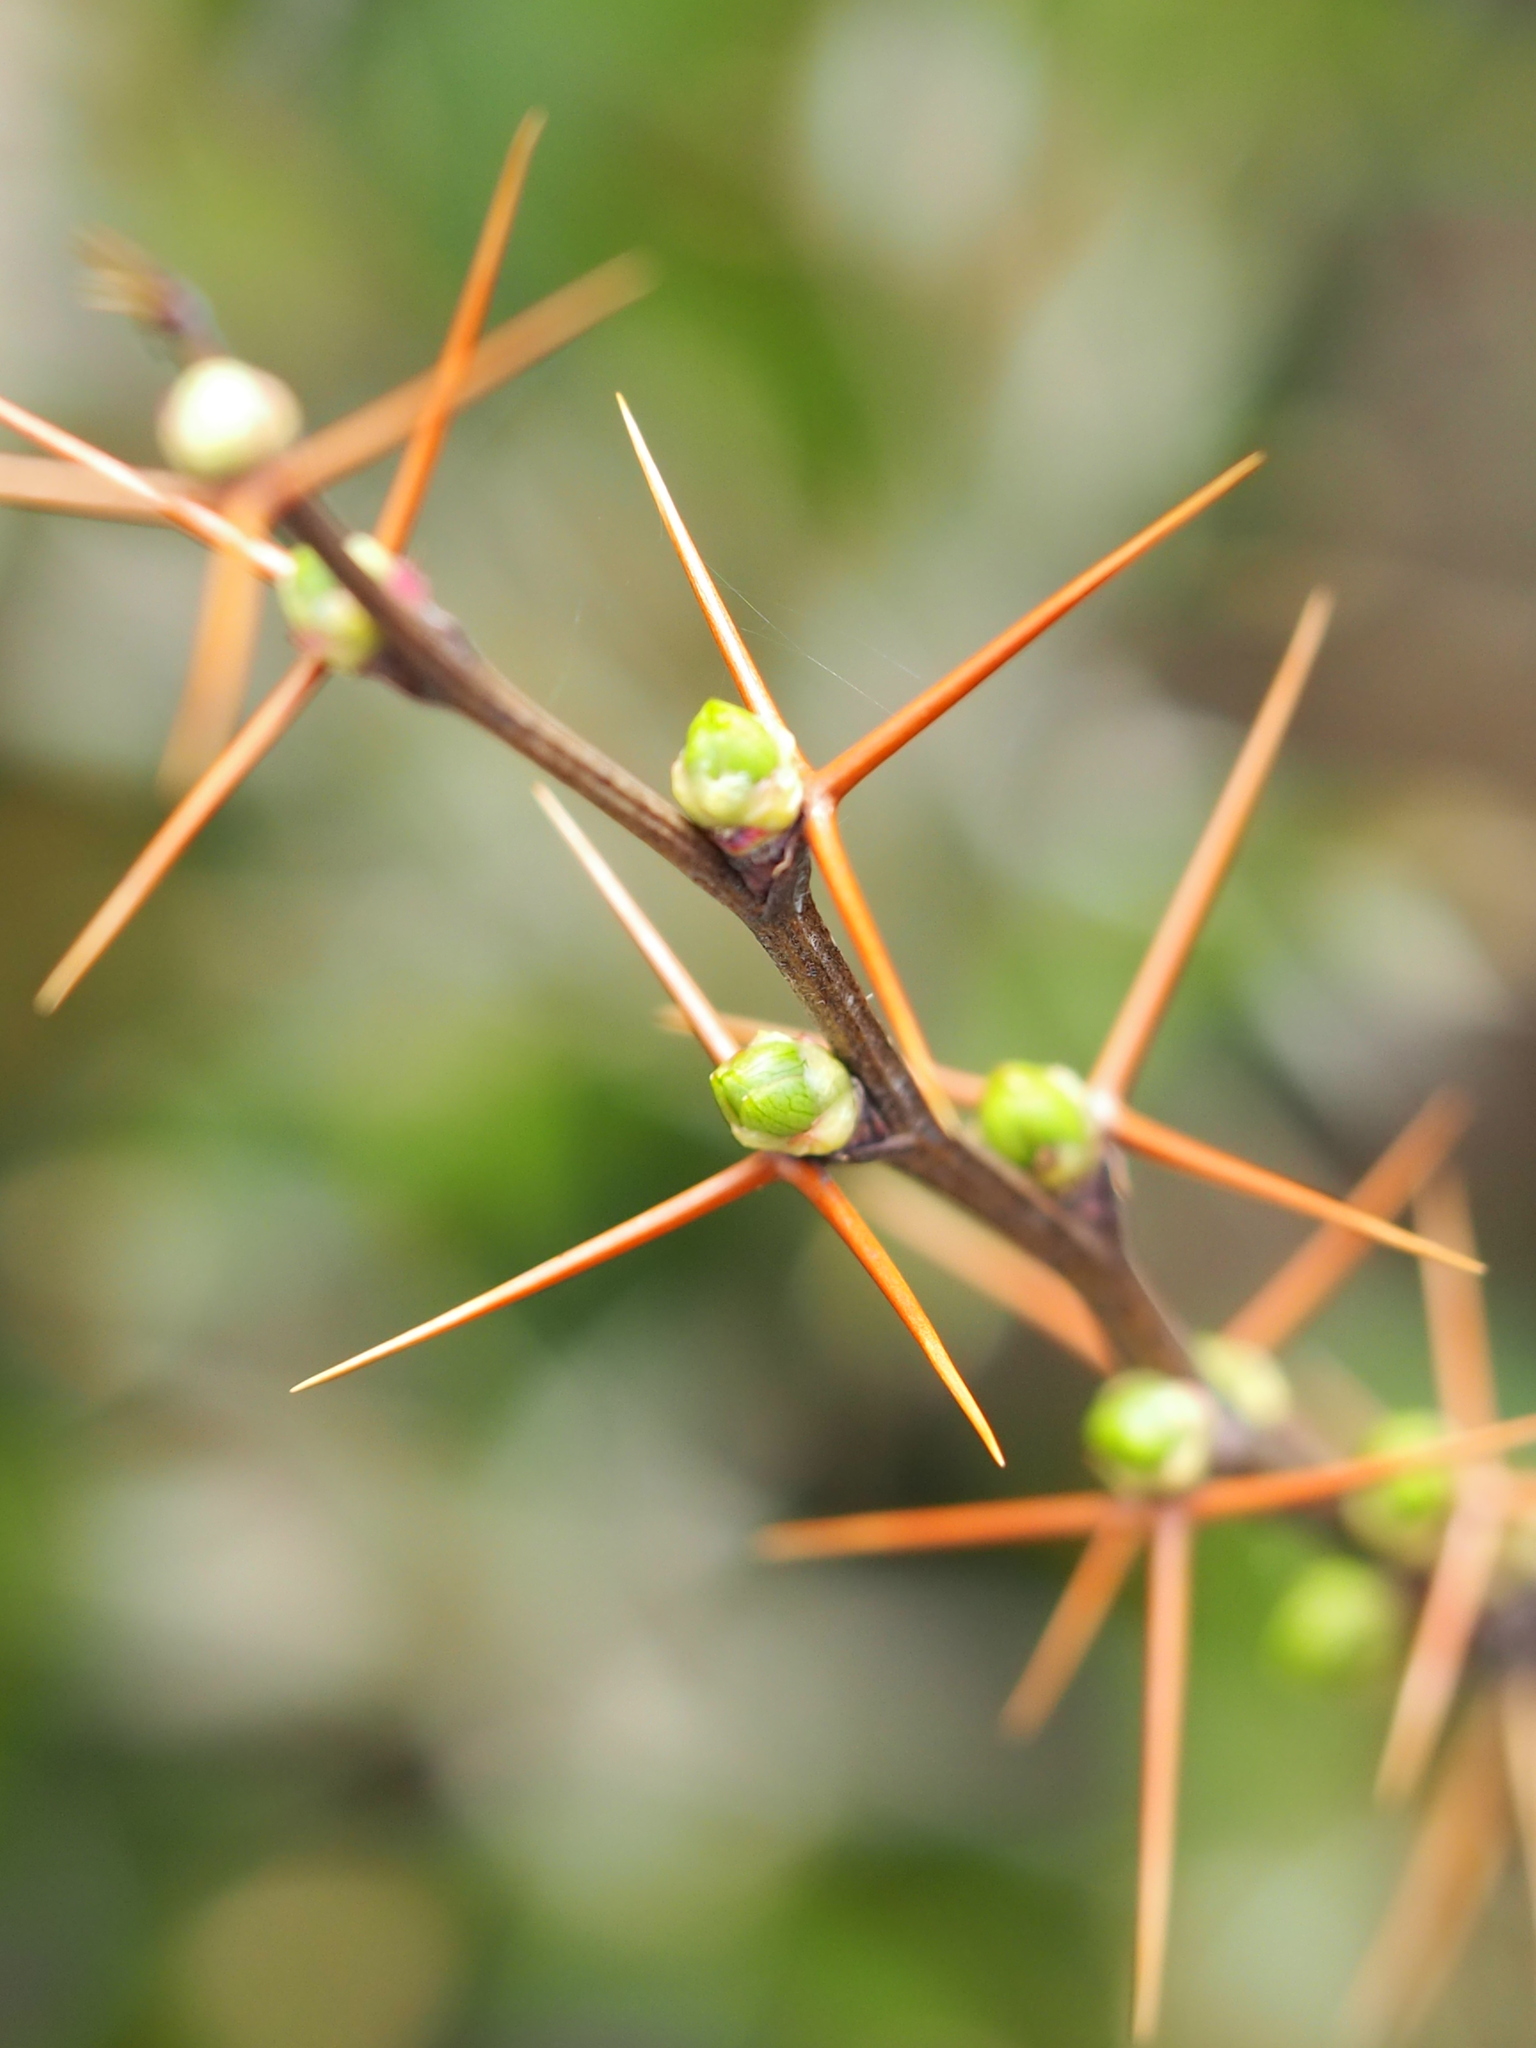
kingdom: Plantae
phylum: Tracheophyta
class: Magnoliopsida
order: Ranunculales
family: Berberidaceae
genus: Berberis
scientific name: Berberis morrisonensis
